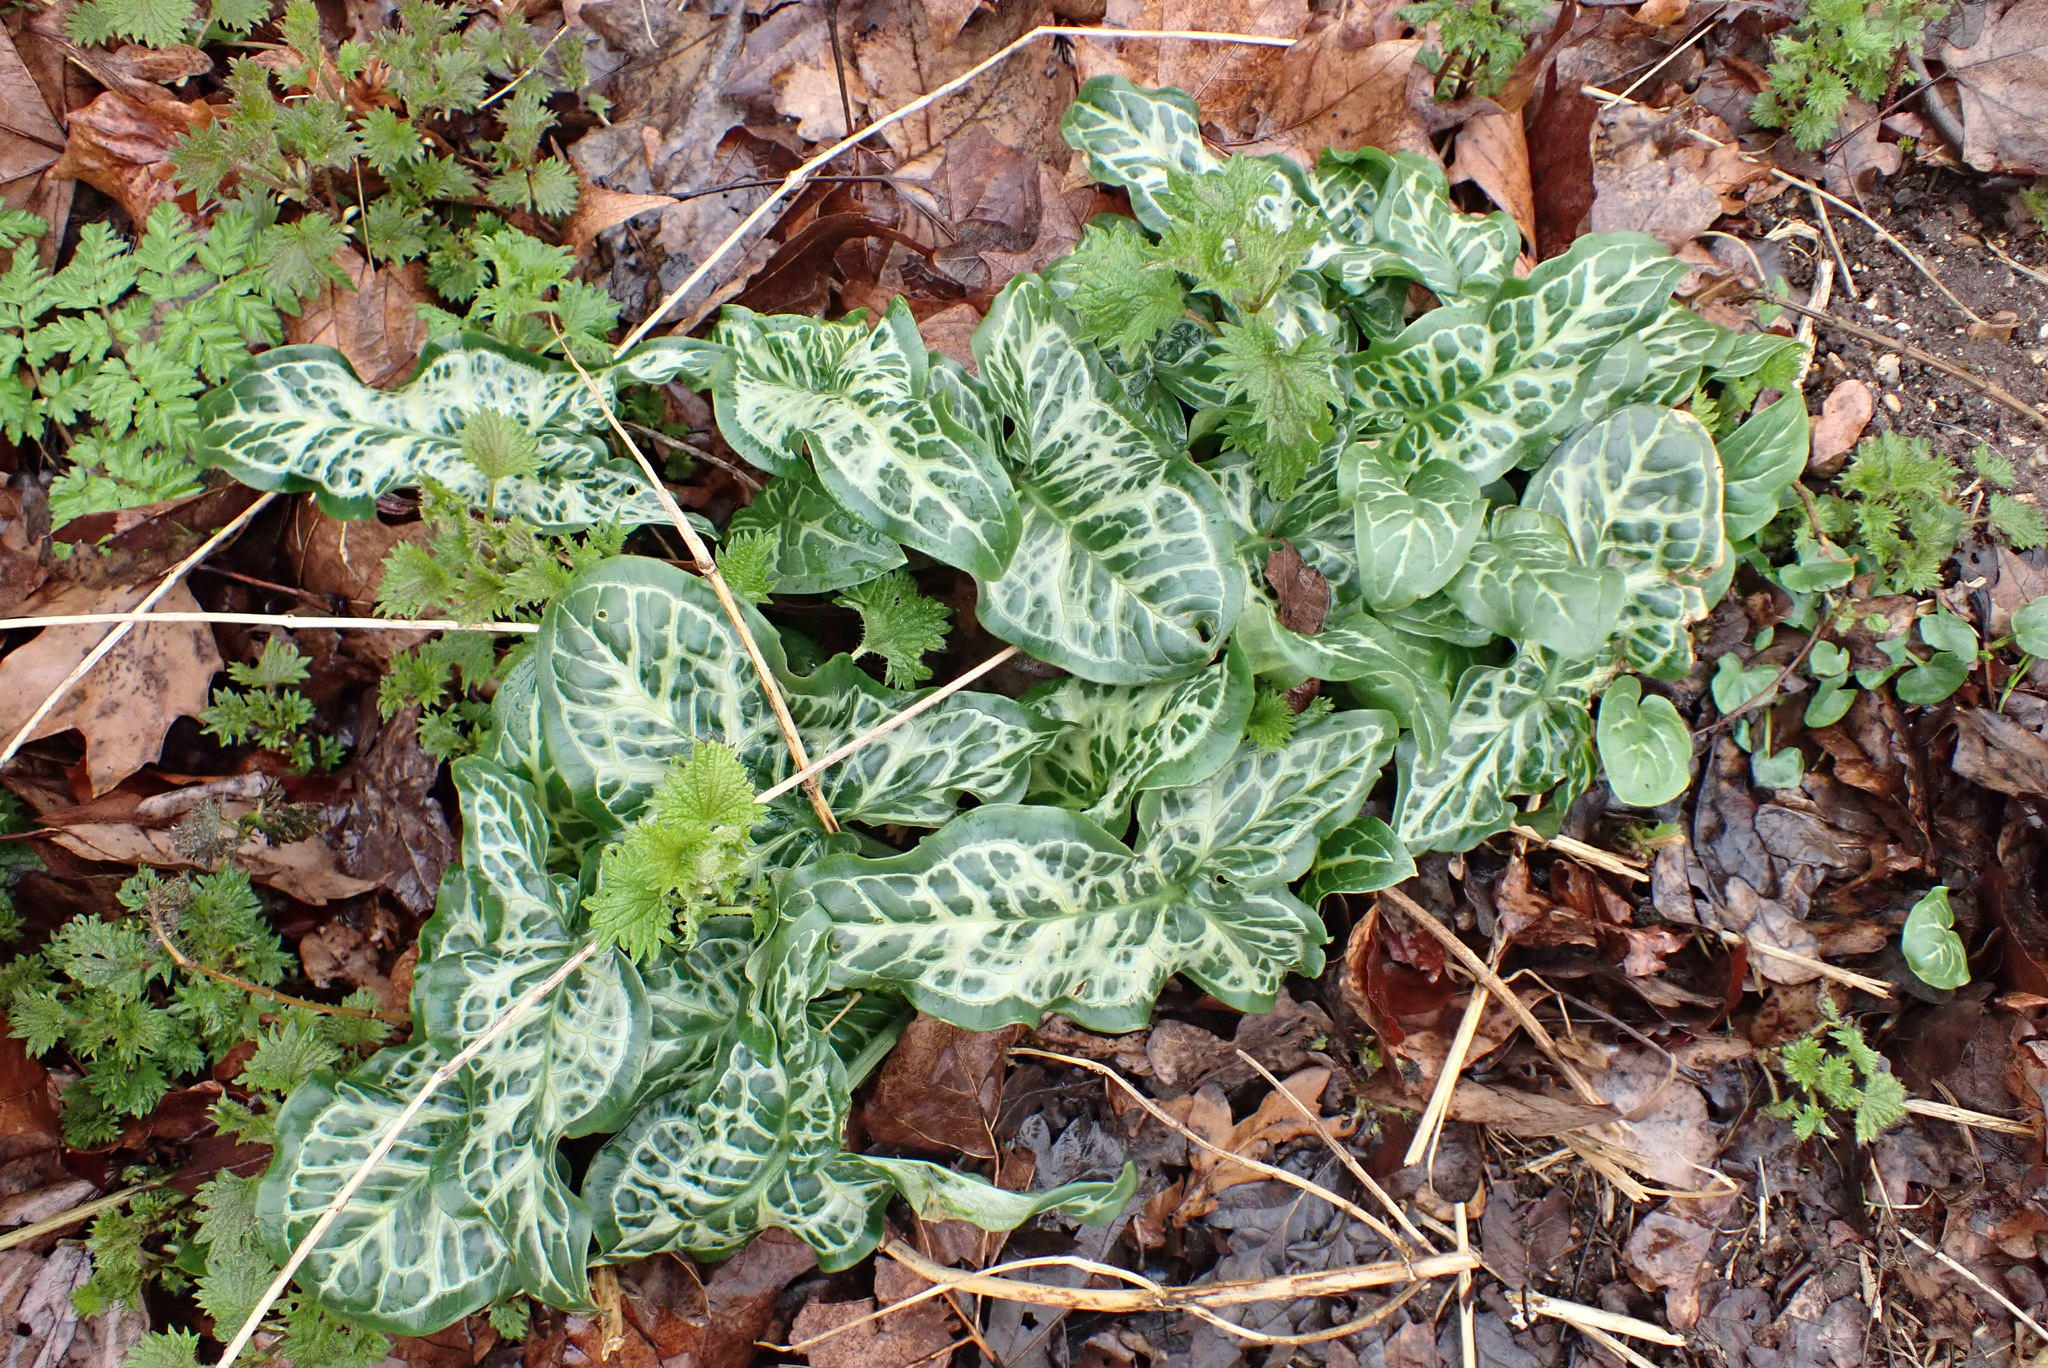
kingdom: Plantae
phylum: Tracheophyta
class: Liliopsida
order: Alismatales
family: Araceae
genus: Arum
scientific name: Arum italicum
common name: Italian lords-and-ladies
